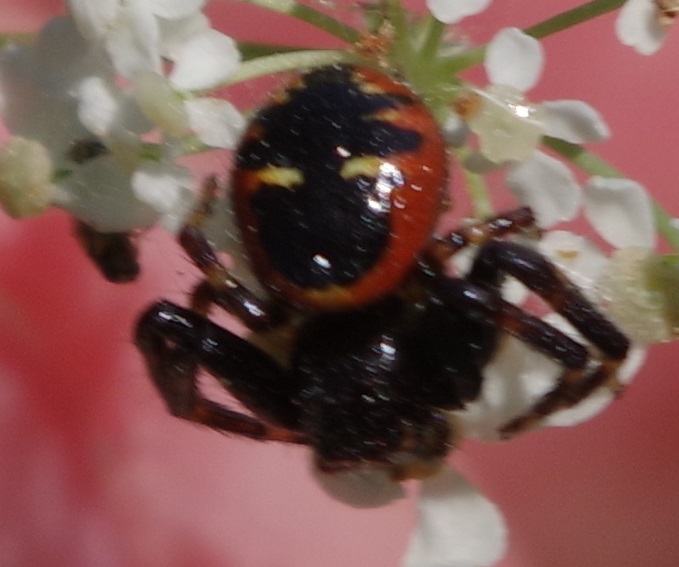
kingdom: Animalia
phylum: Arthropoda
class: Arachnida
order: Araneae
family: Thomisidae
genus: Synema
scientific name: Synema globosum
